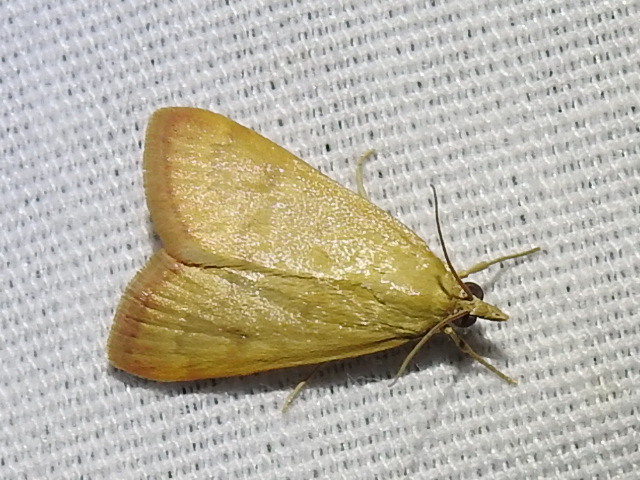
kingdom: Animalia
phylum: Arthropoda
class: Insecta
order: Lepidoptera
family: Crambidae
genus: Achyra
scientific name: Achyra rantalis
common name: Garden webworm
